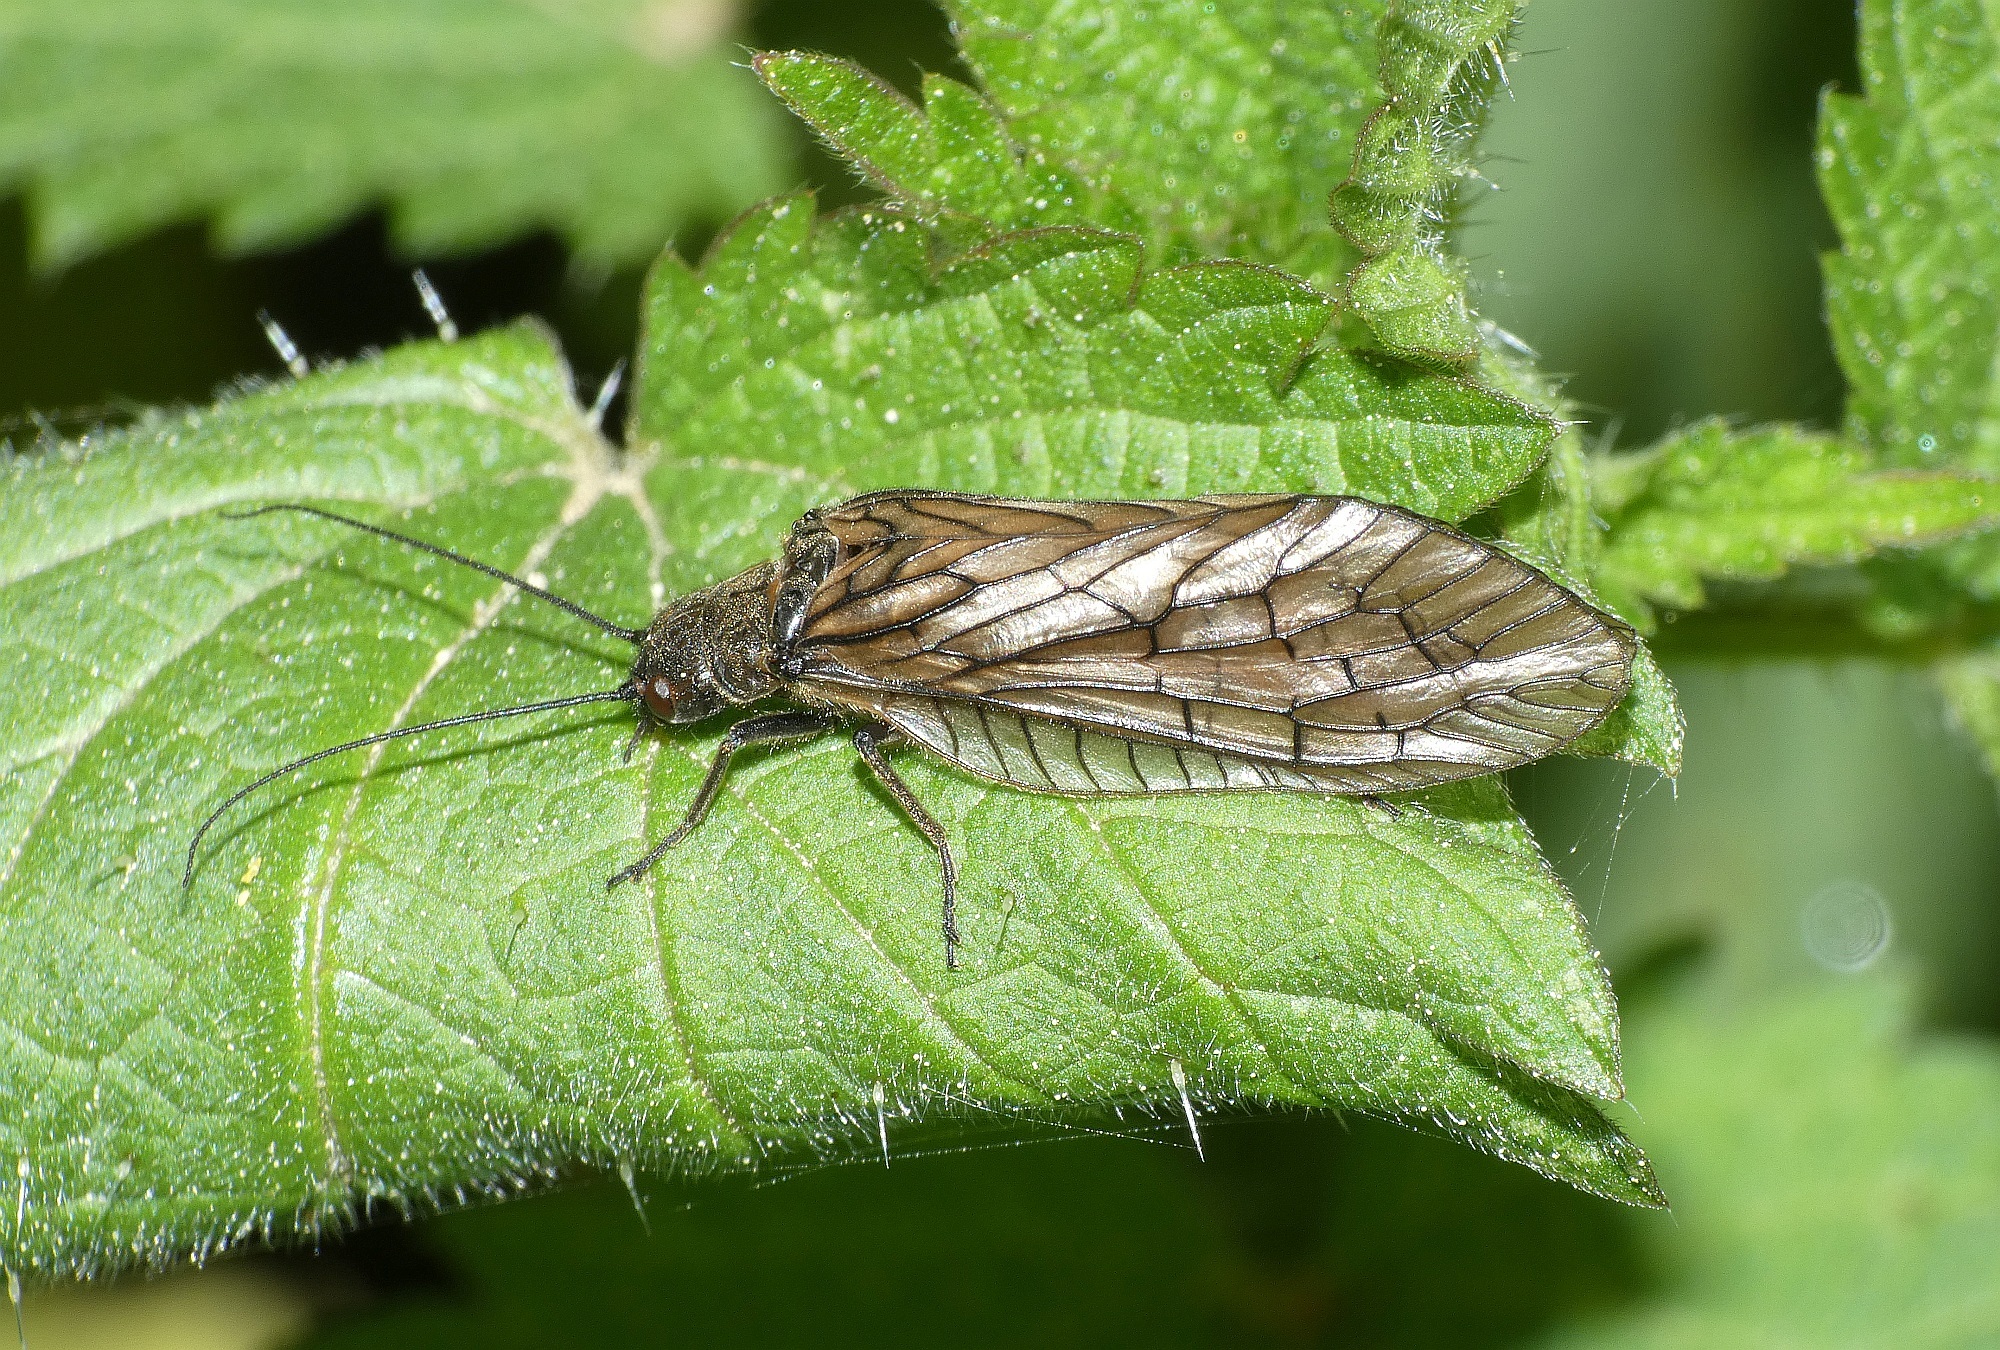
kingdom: Animalia
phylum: Arthropoda
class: Insecta
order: Megaloptera
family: Sialidae
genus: Sialis
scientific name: Sialis
